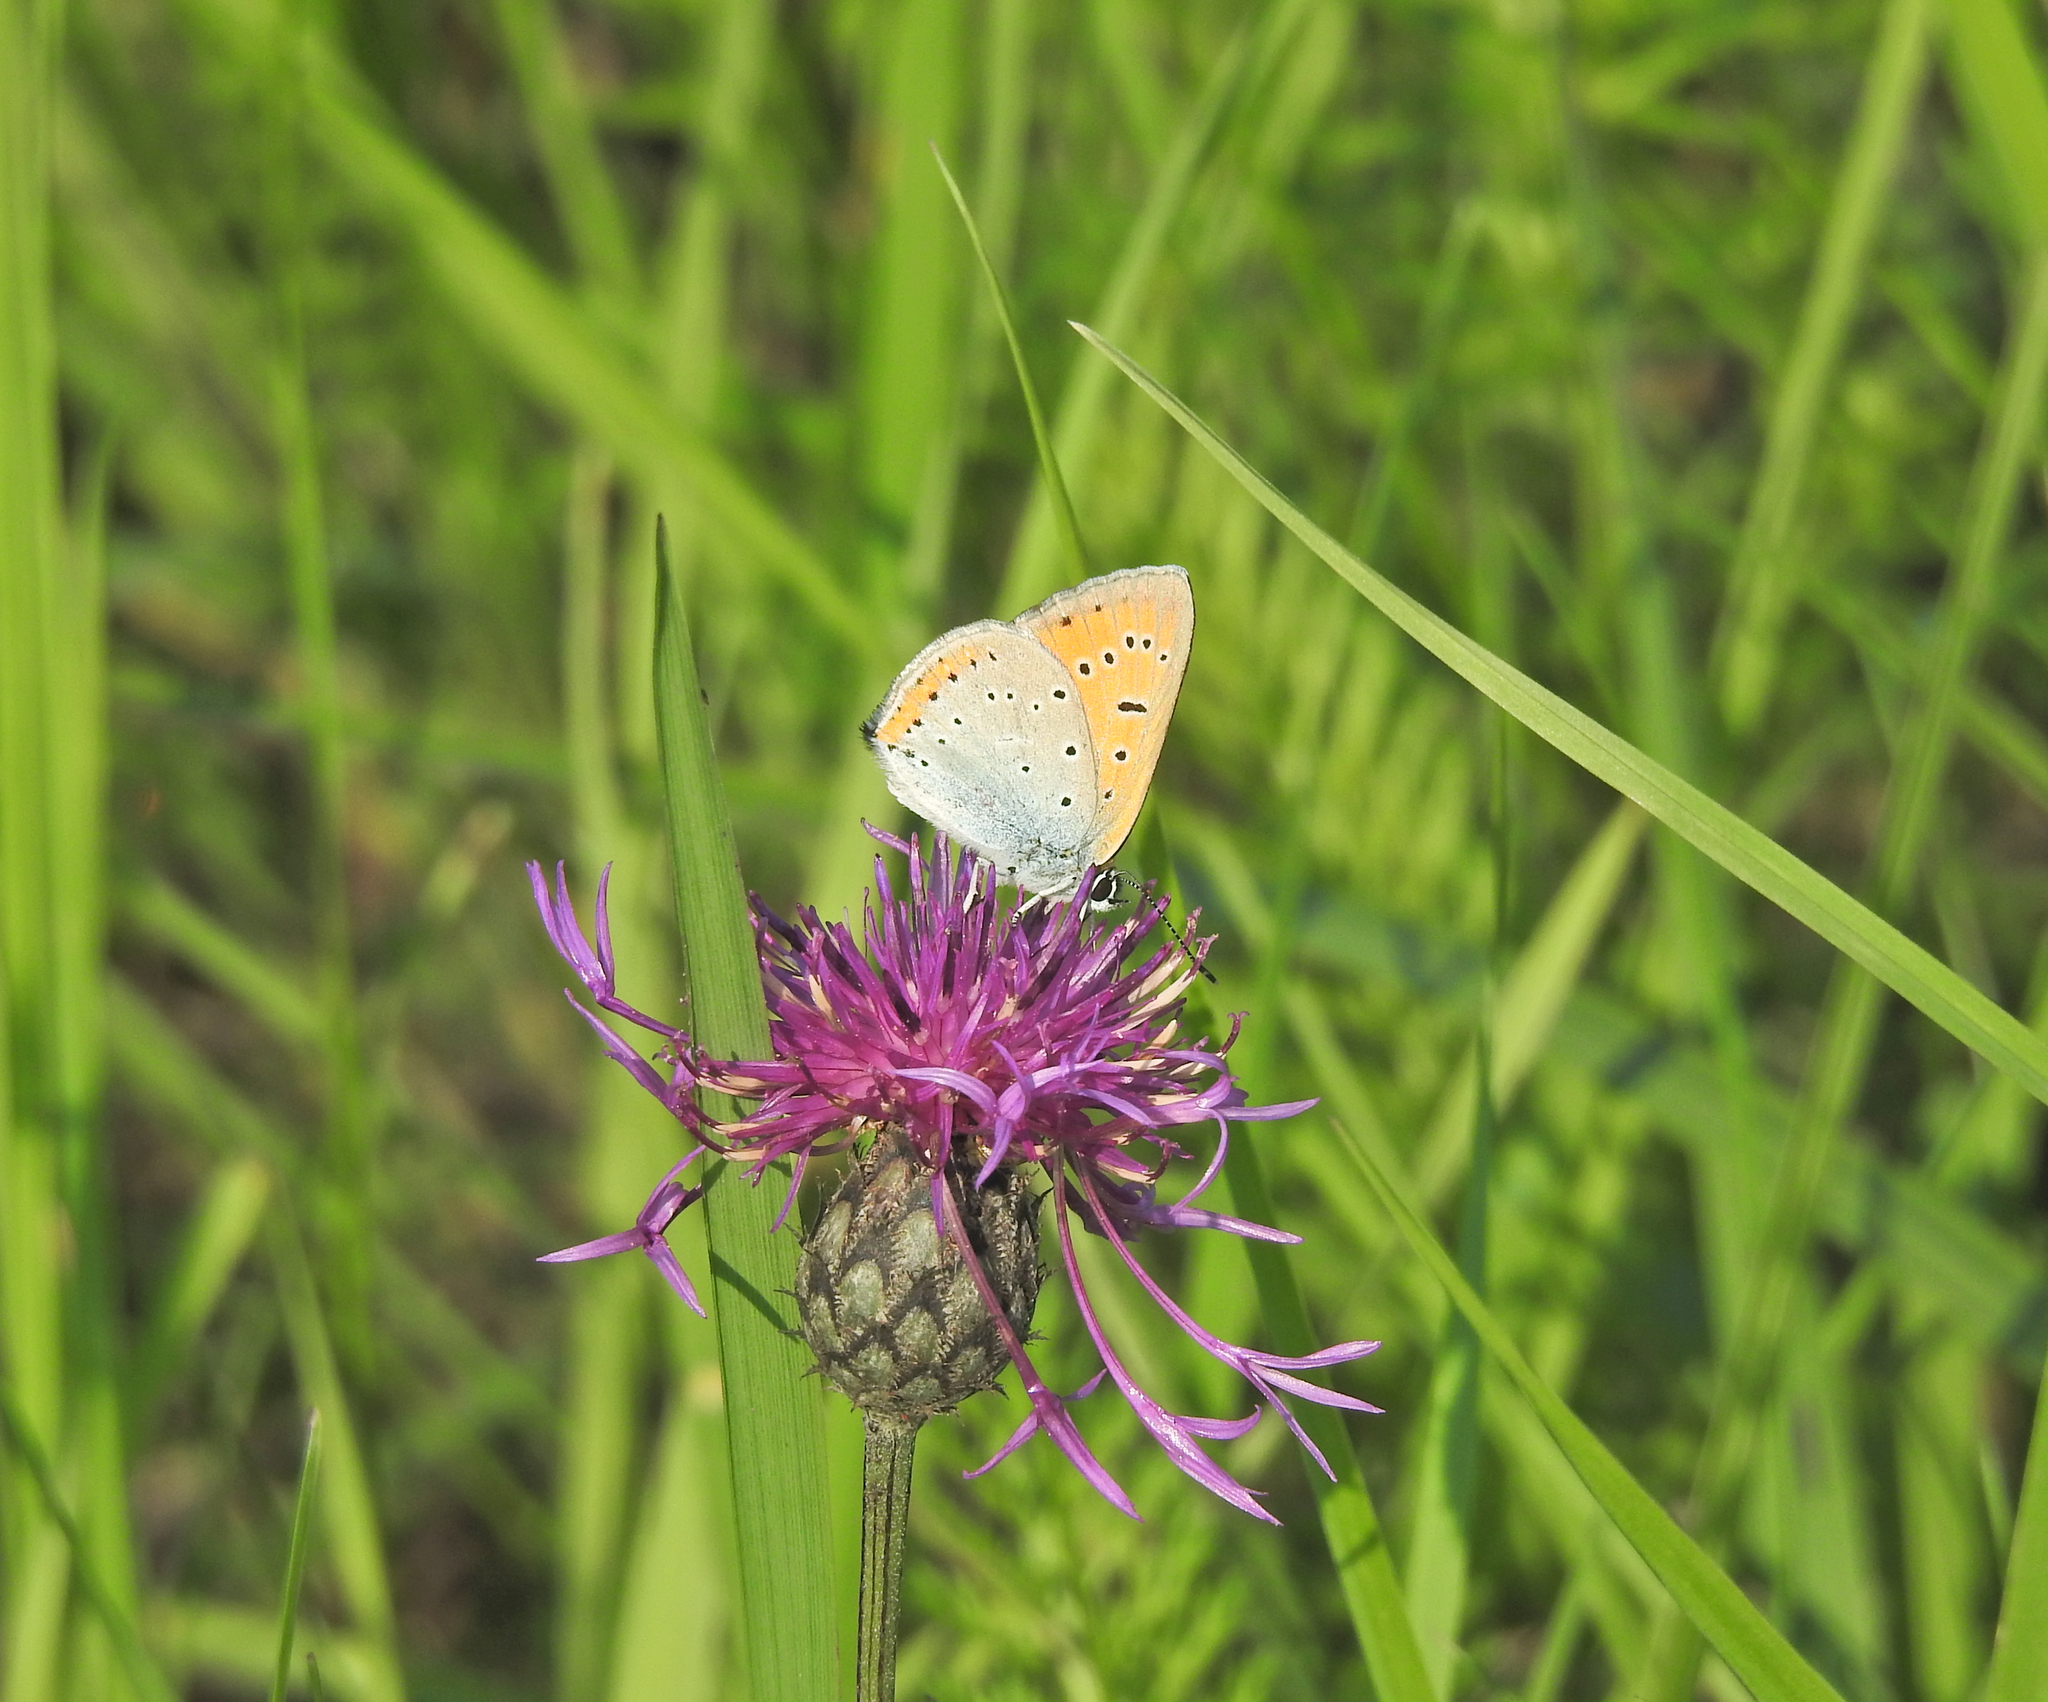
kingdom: Animalia
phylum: Arthropoda
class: Insecta
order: Lepidoptera
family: Lycaenidae
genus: Lycaena
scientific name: Lycaena dispar
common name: Large copper
